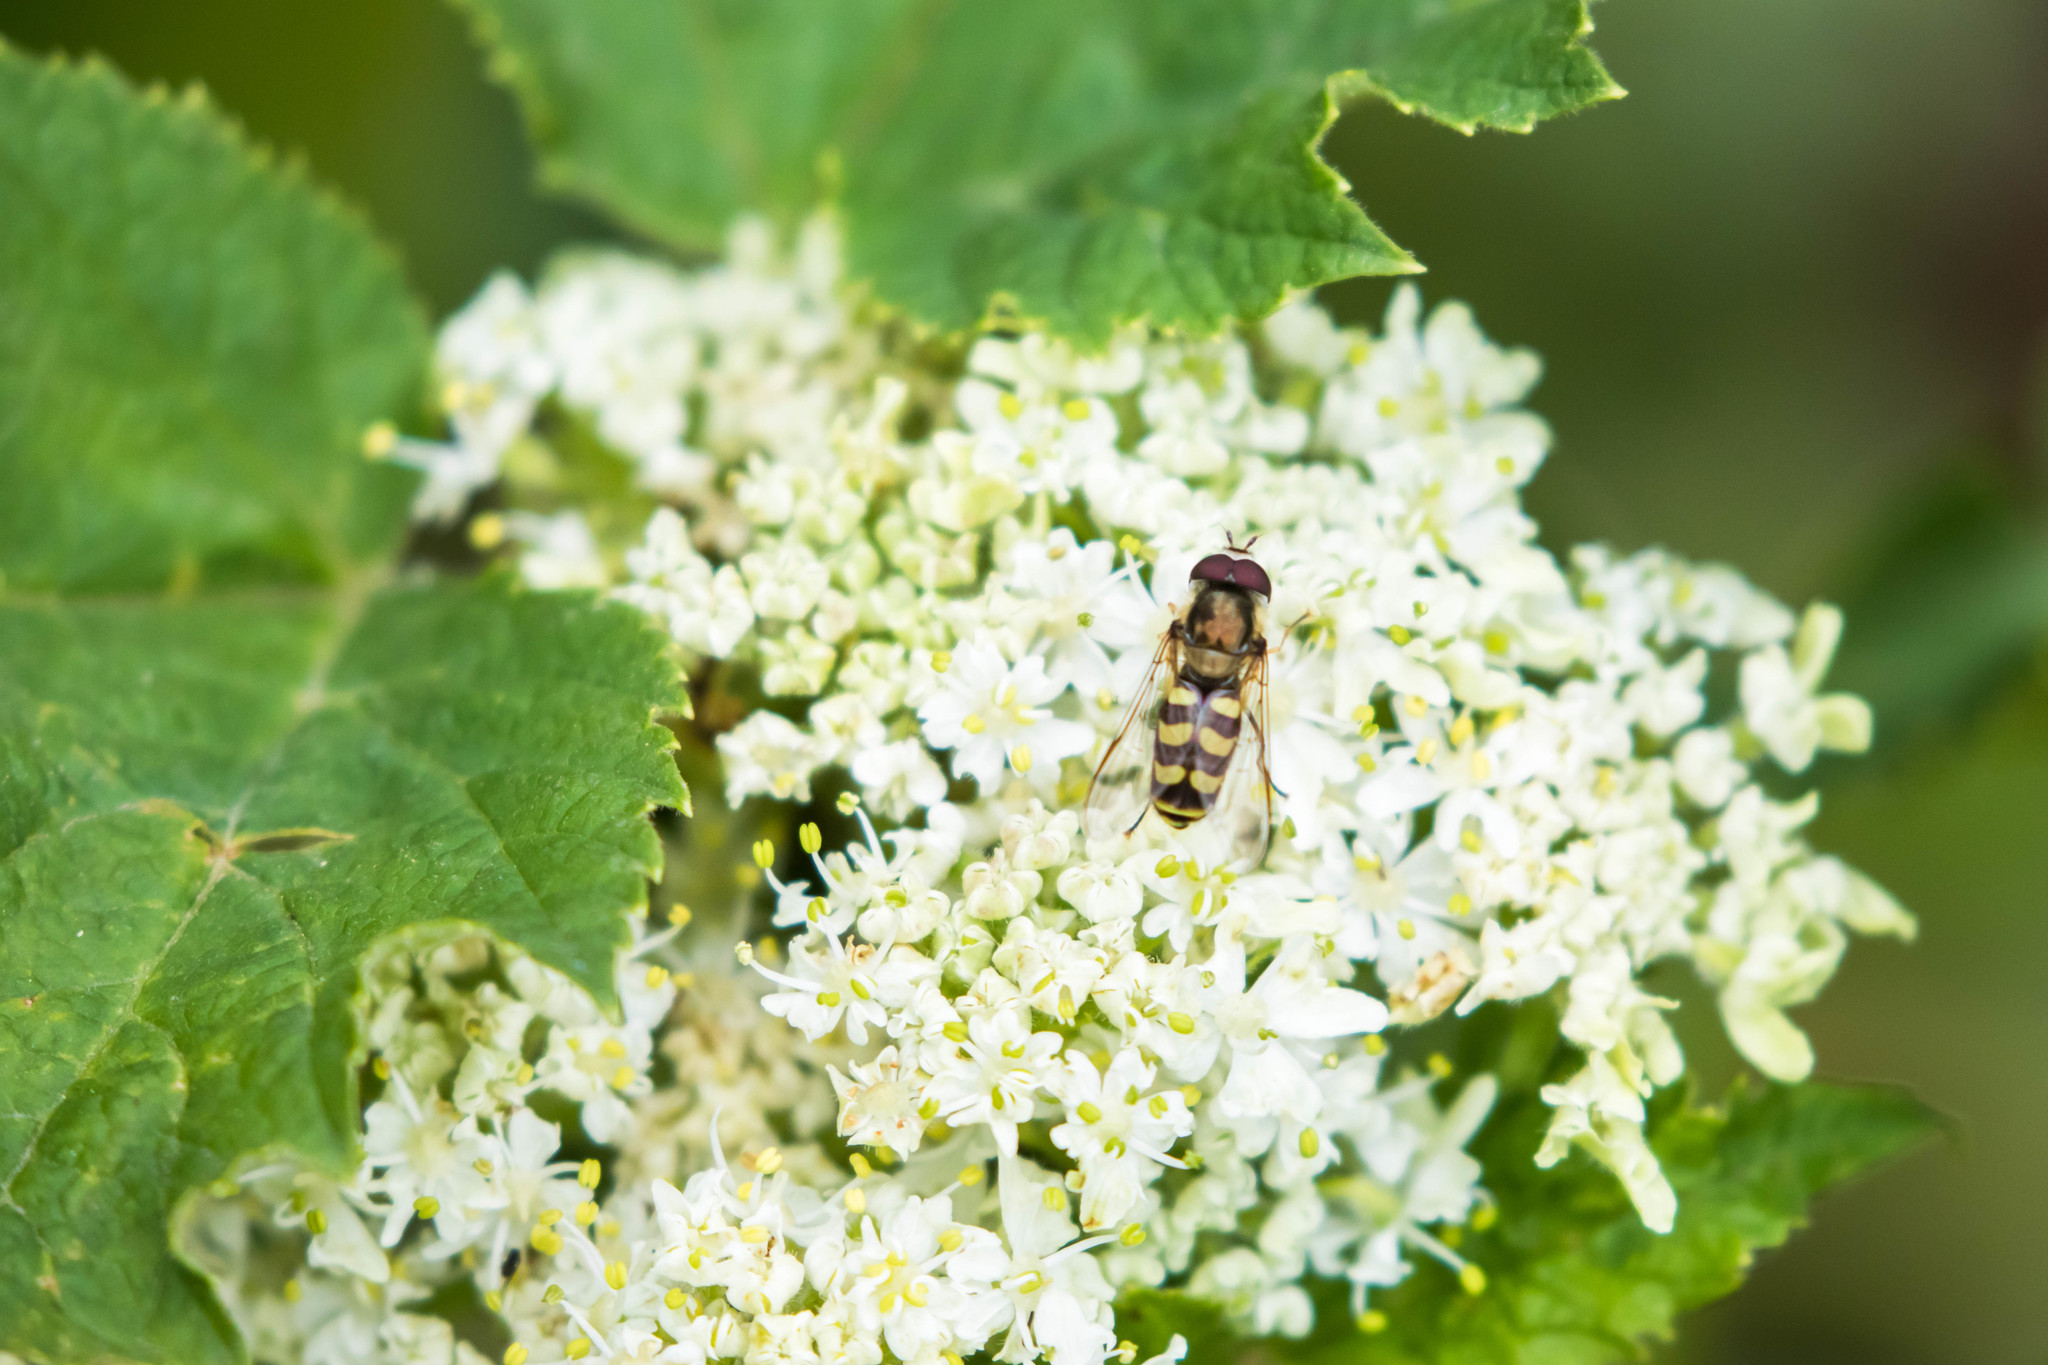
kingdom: Animalia
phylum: Arthropoda
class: Insecta
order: Diptera
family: Syrphidae
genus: Lapposyrphus
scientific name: Lapposyrphus lapponicus
